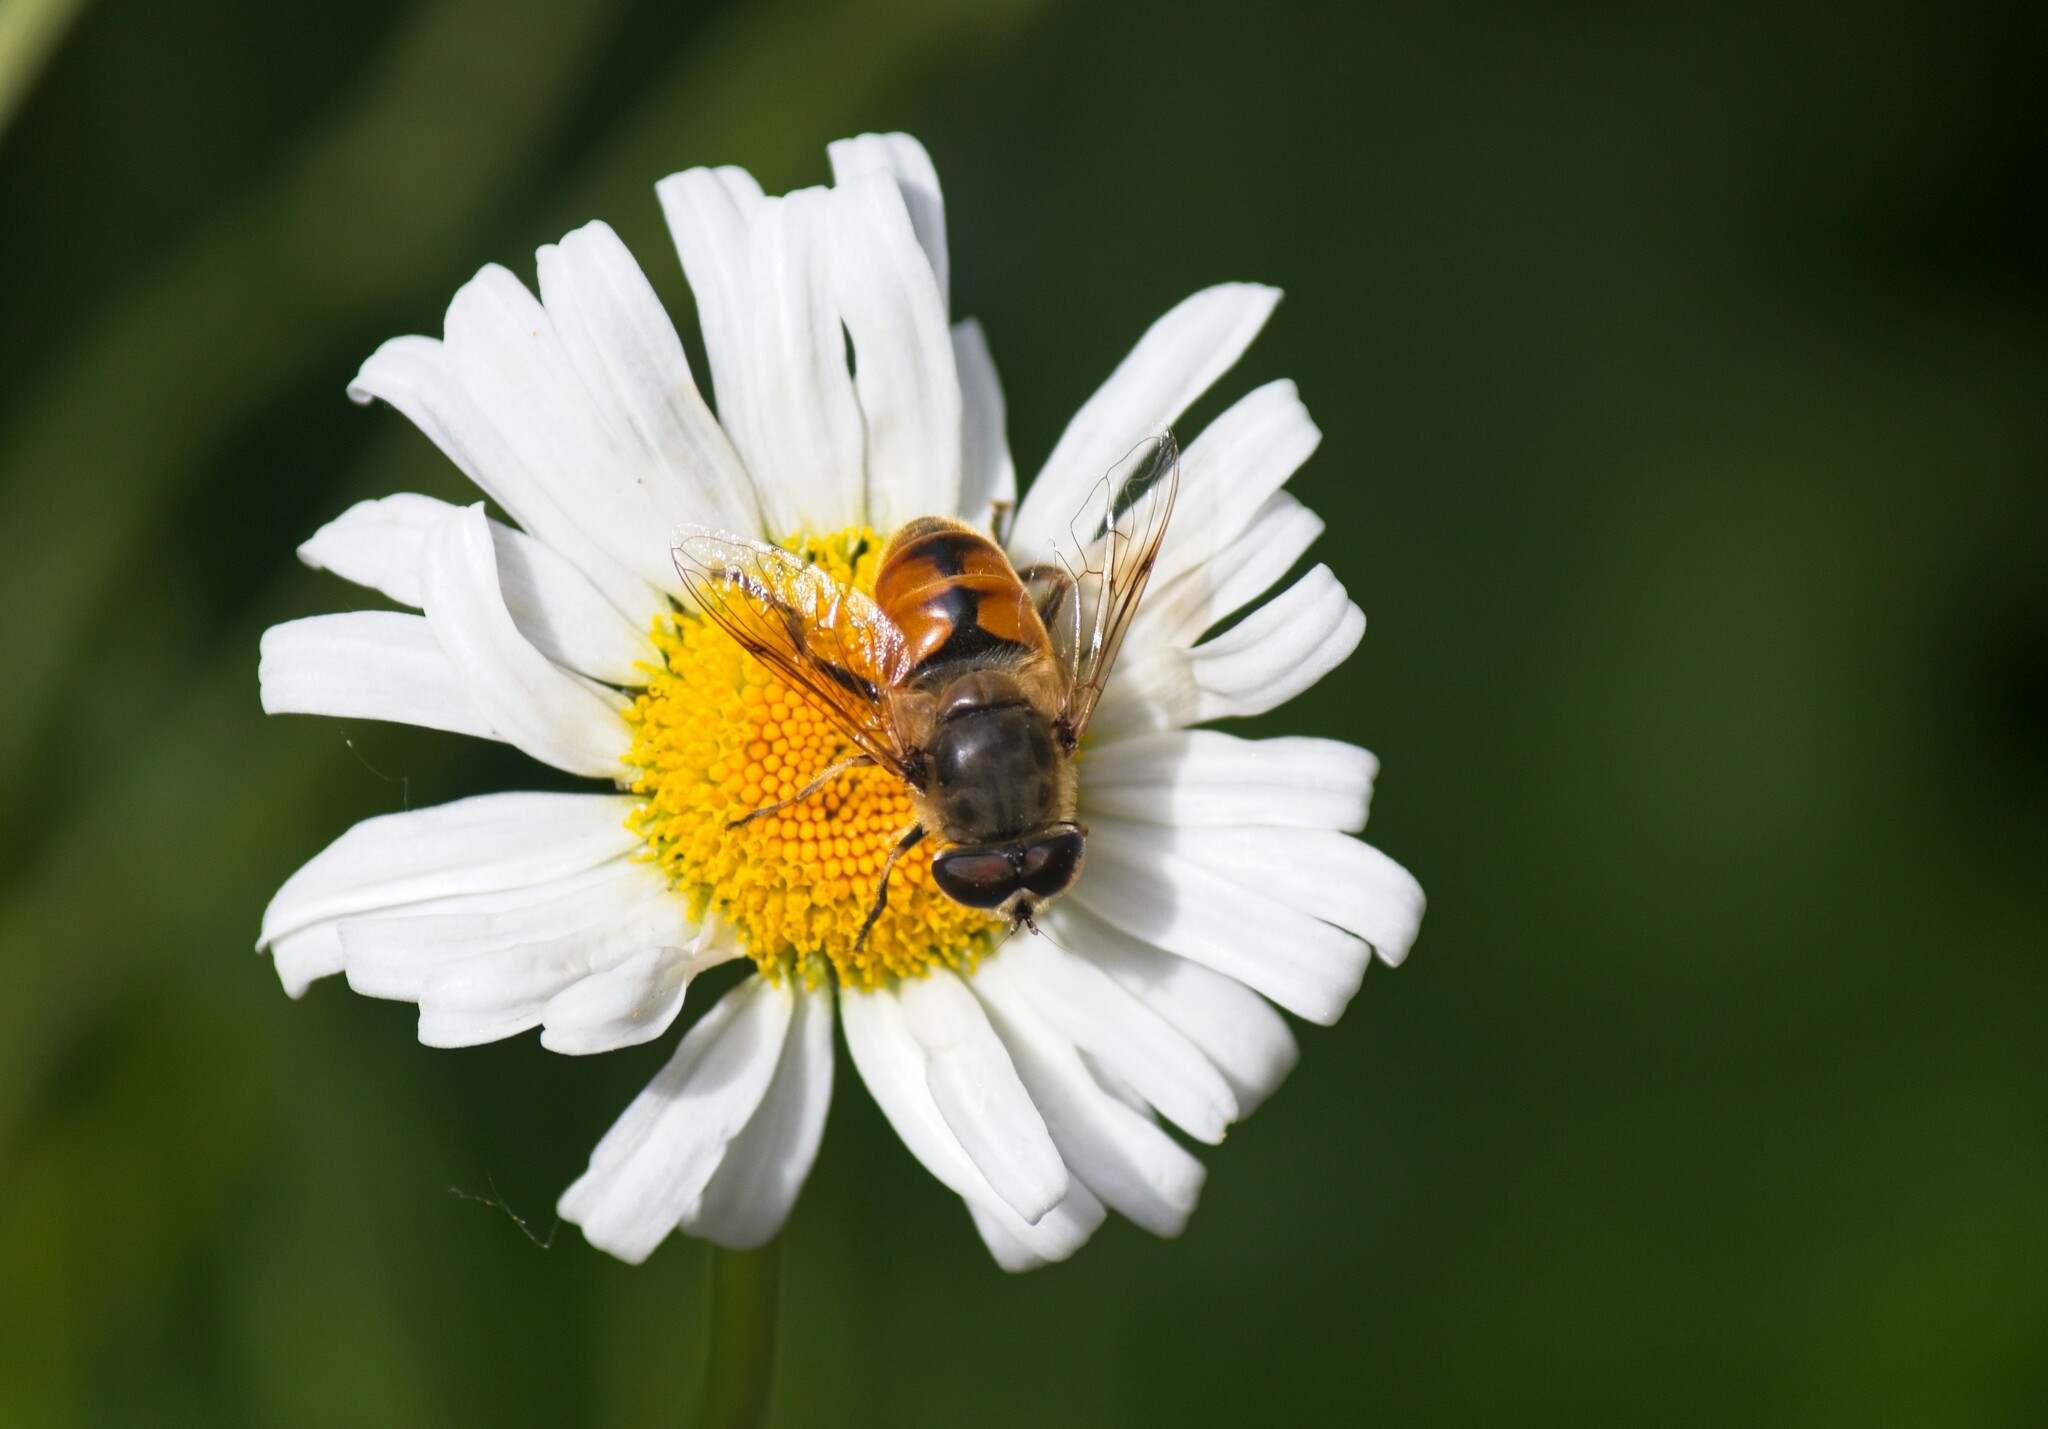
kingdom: Animalia
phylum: Arthropoda
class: Insecta
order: Diptera
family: Syrphidae
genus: Eristalis
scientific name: Eristalis tenax
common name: Drone fly
